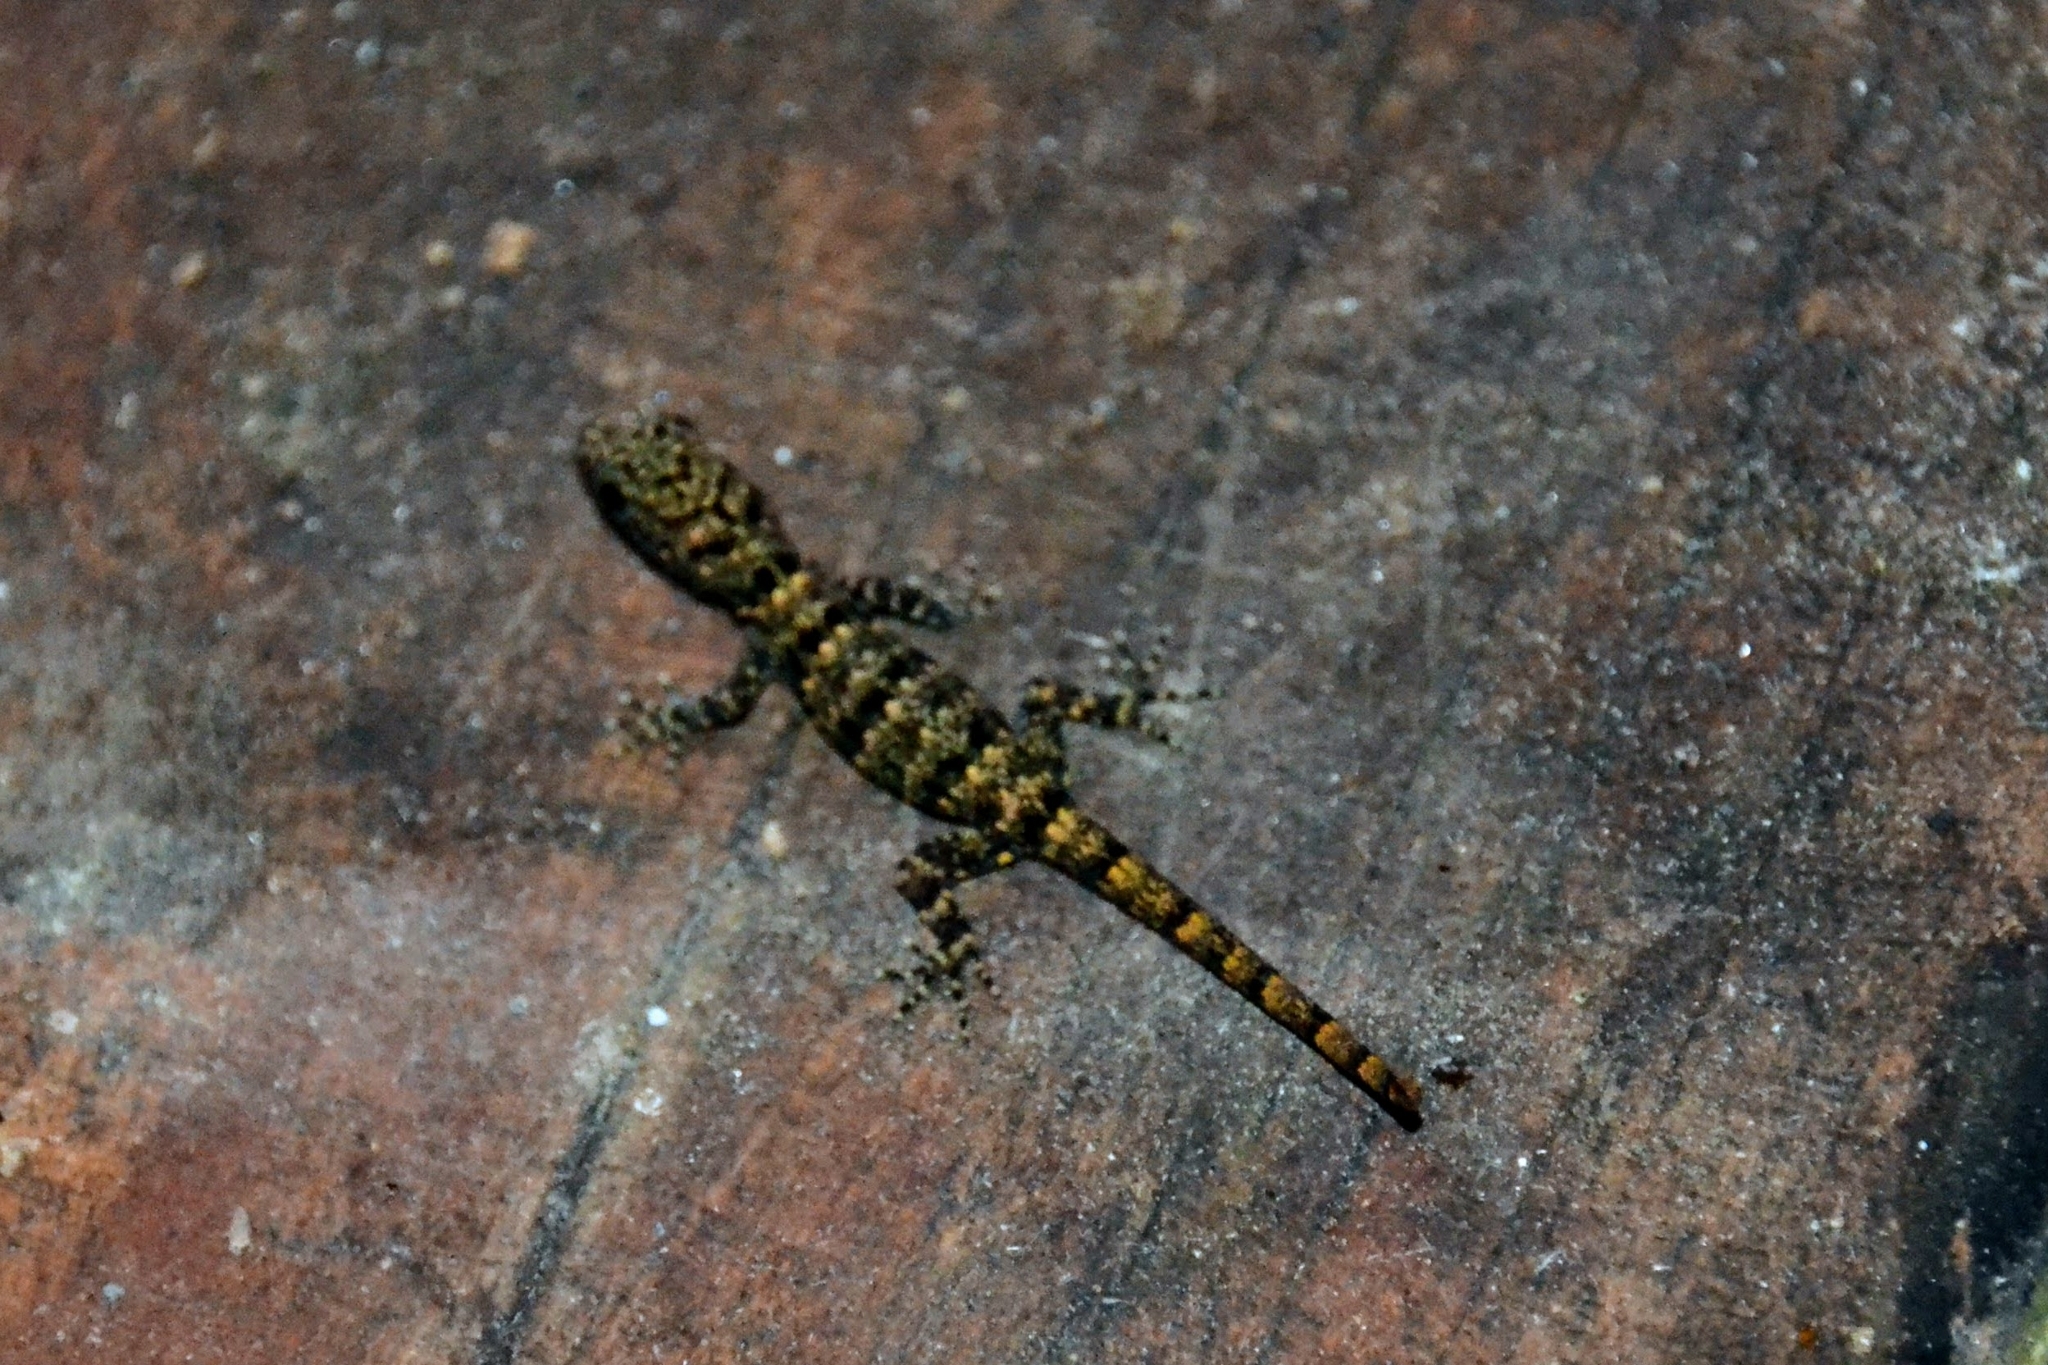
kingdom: Animalia
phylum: Chordata
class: Squamata
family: Sphaerodactylidae
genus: Gonatodes
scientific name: Gonatodes albogularis
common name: Yellow-headed gecko
